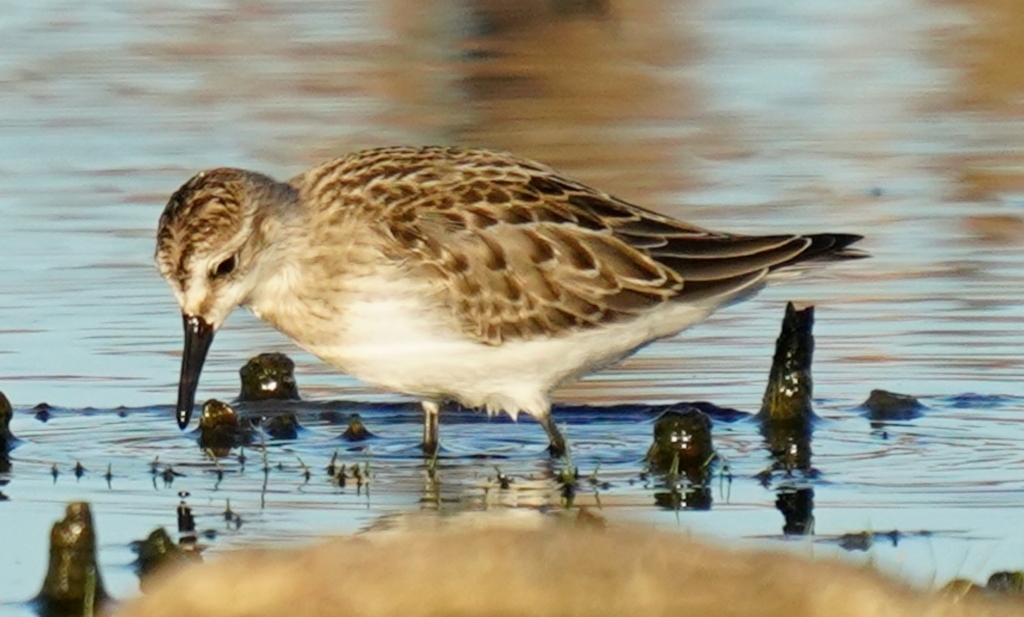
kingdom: Animalia
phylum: Chordata
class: Aves
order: Charadriiformes
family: Scolopacidae
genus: Calidris
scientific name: Calidris pusilla
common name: Semipalmated sandpiper
